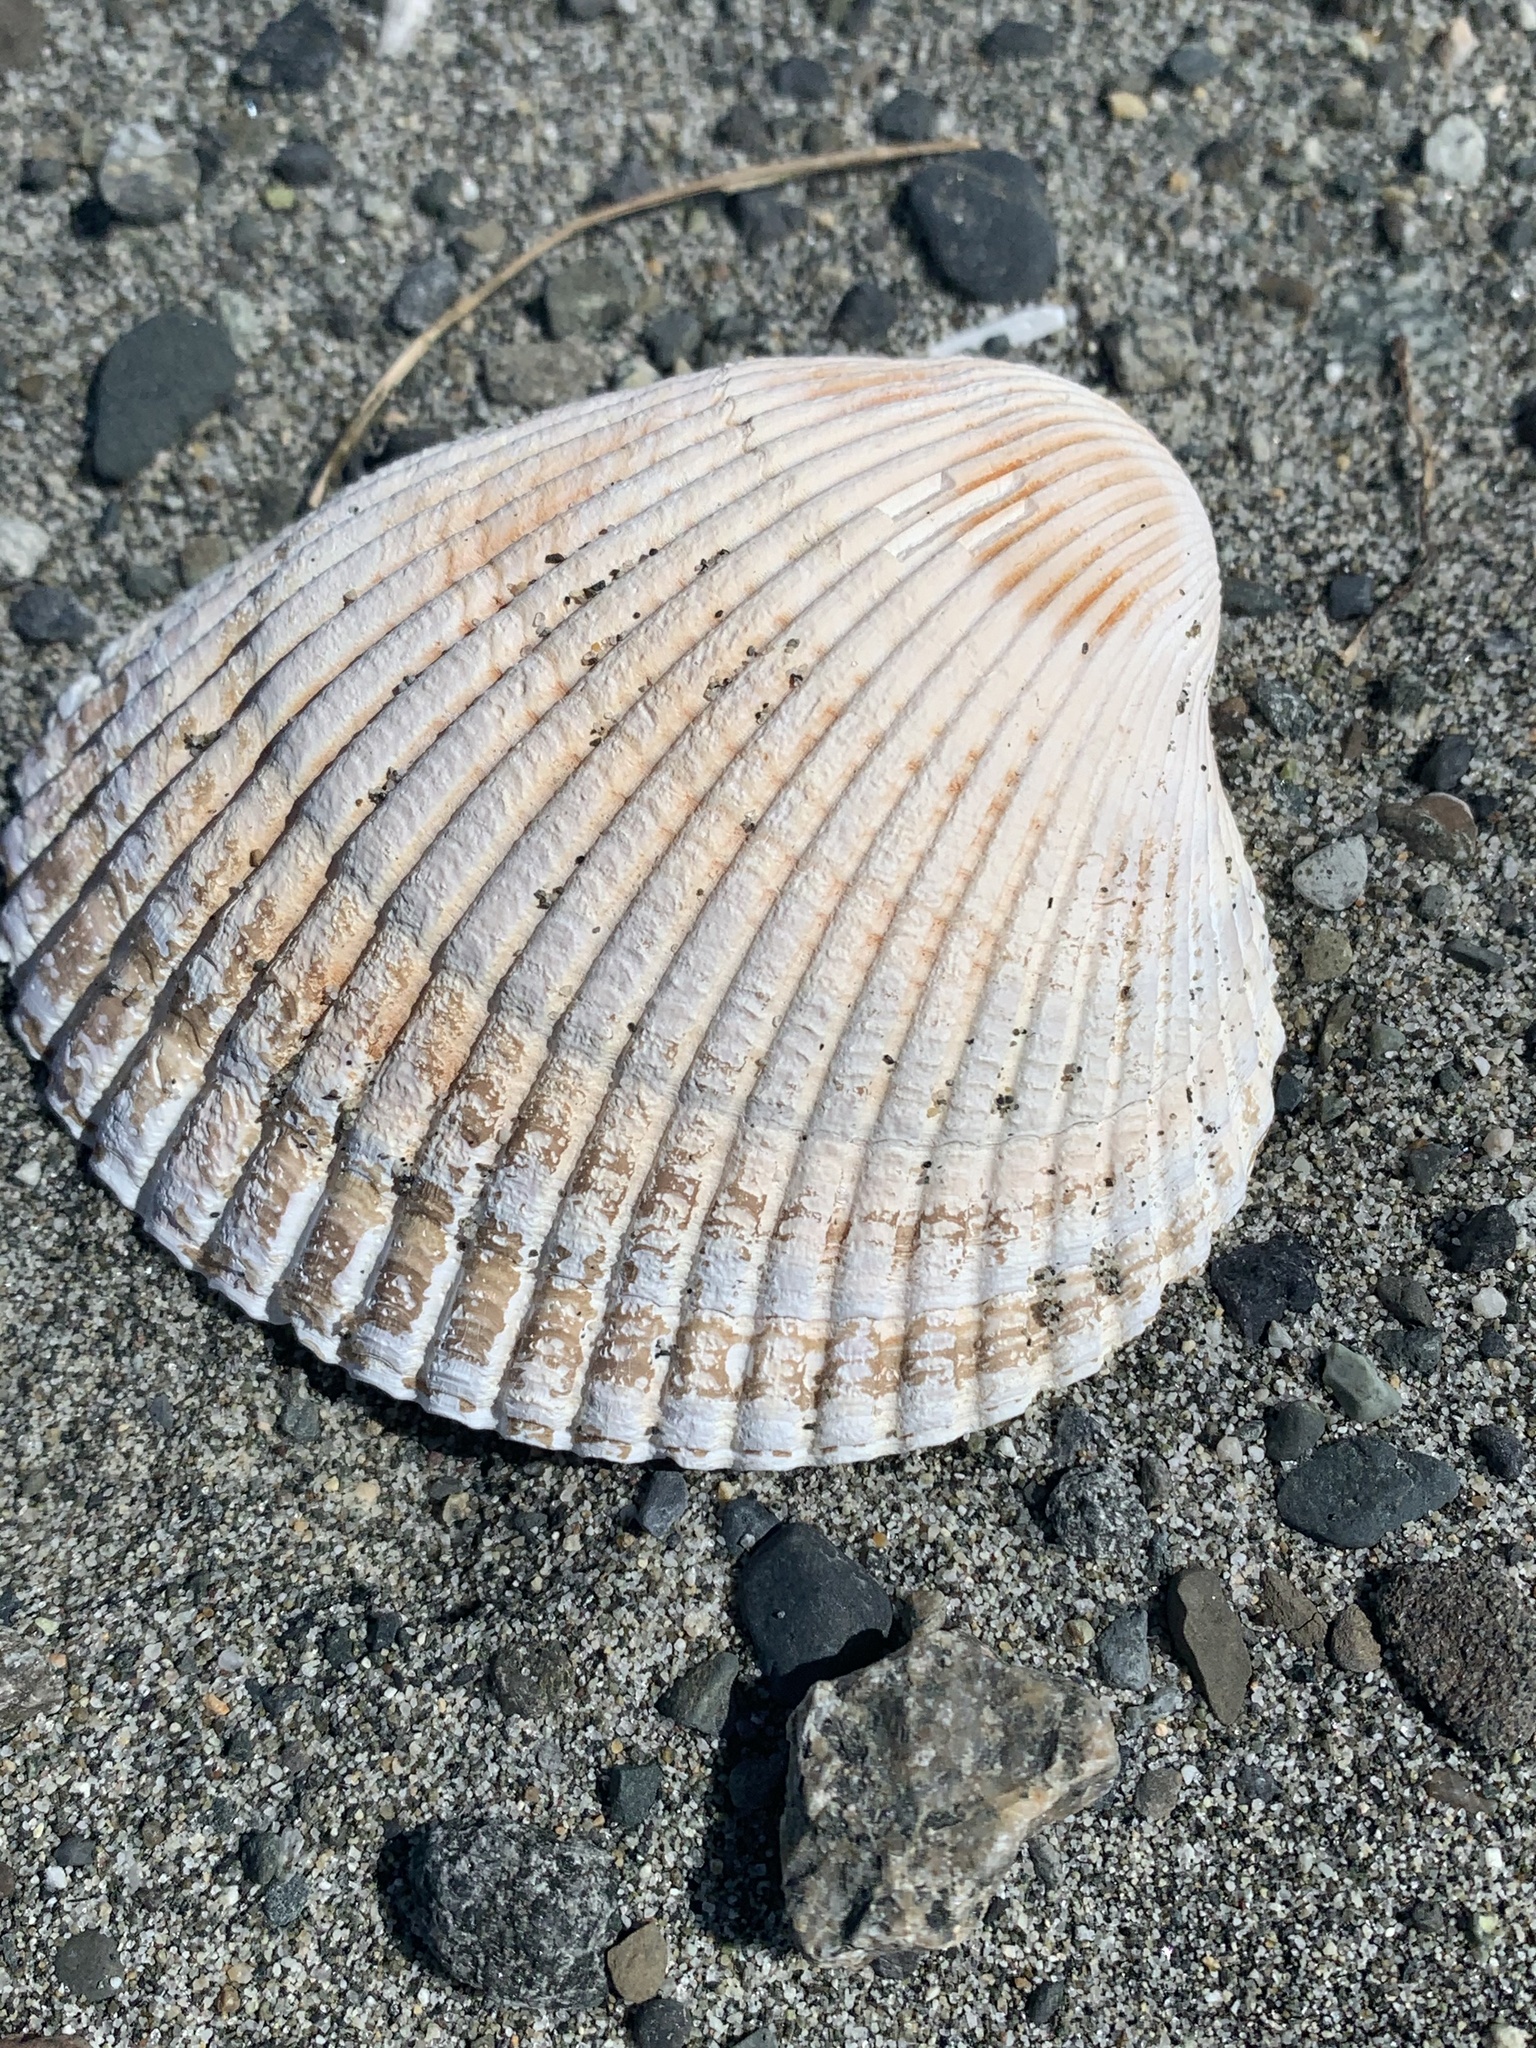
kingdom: Animalia
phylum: Mollusca
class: Bivalvia
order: Cardiida
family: Cardiidae
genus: Clinocardium
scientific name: Clinocardium nuttallii
